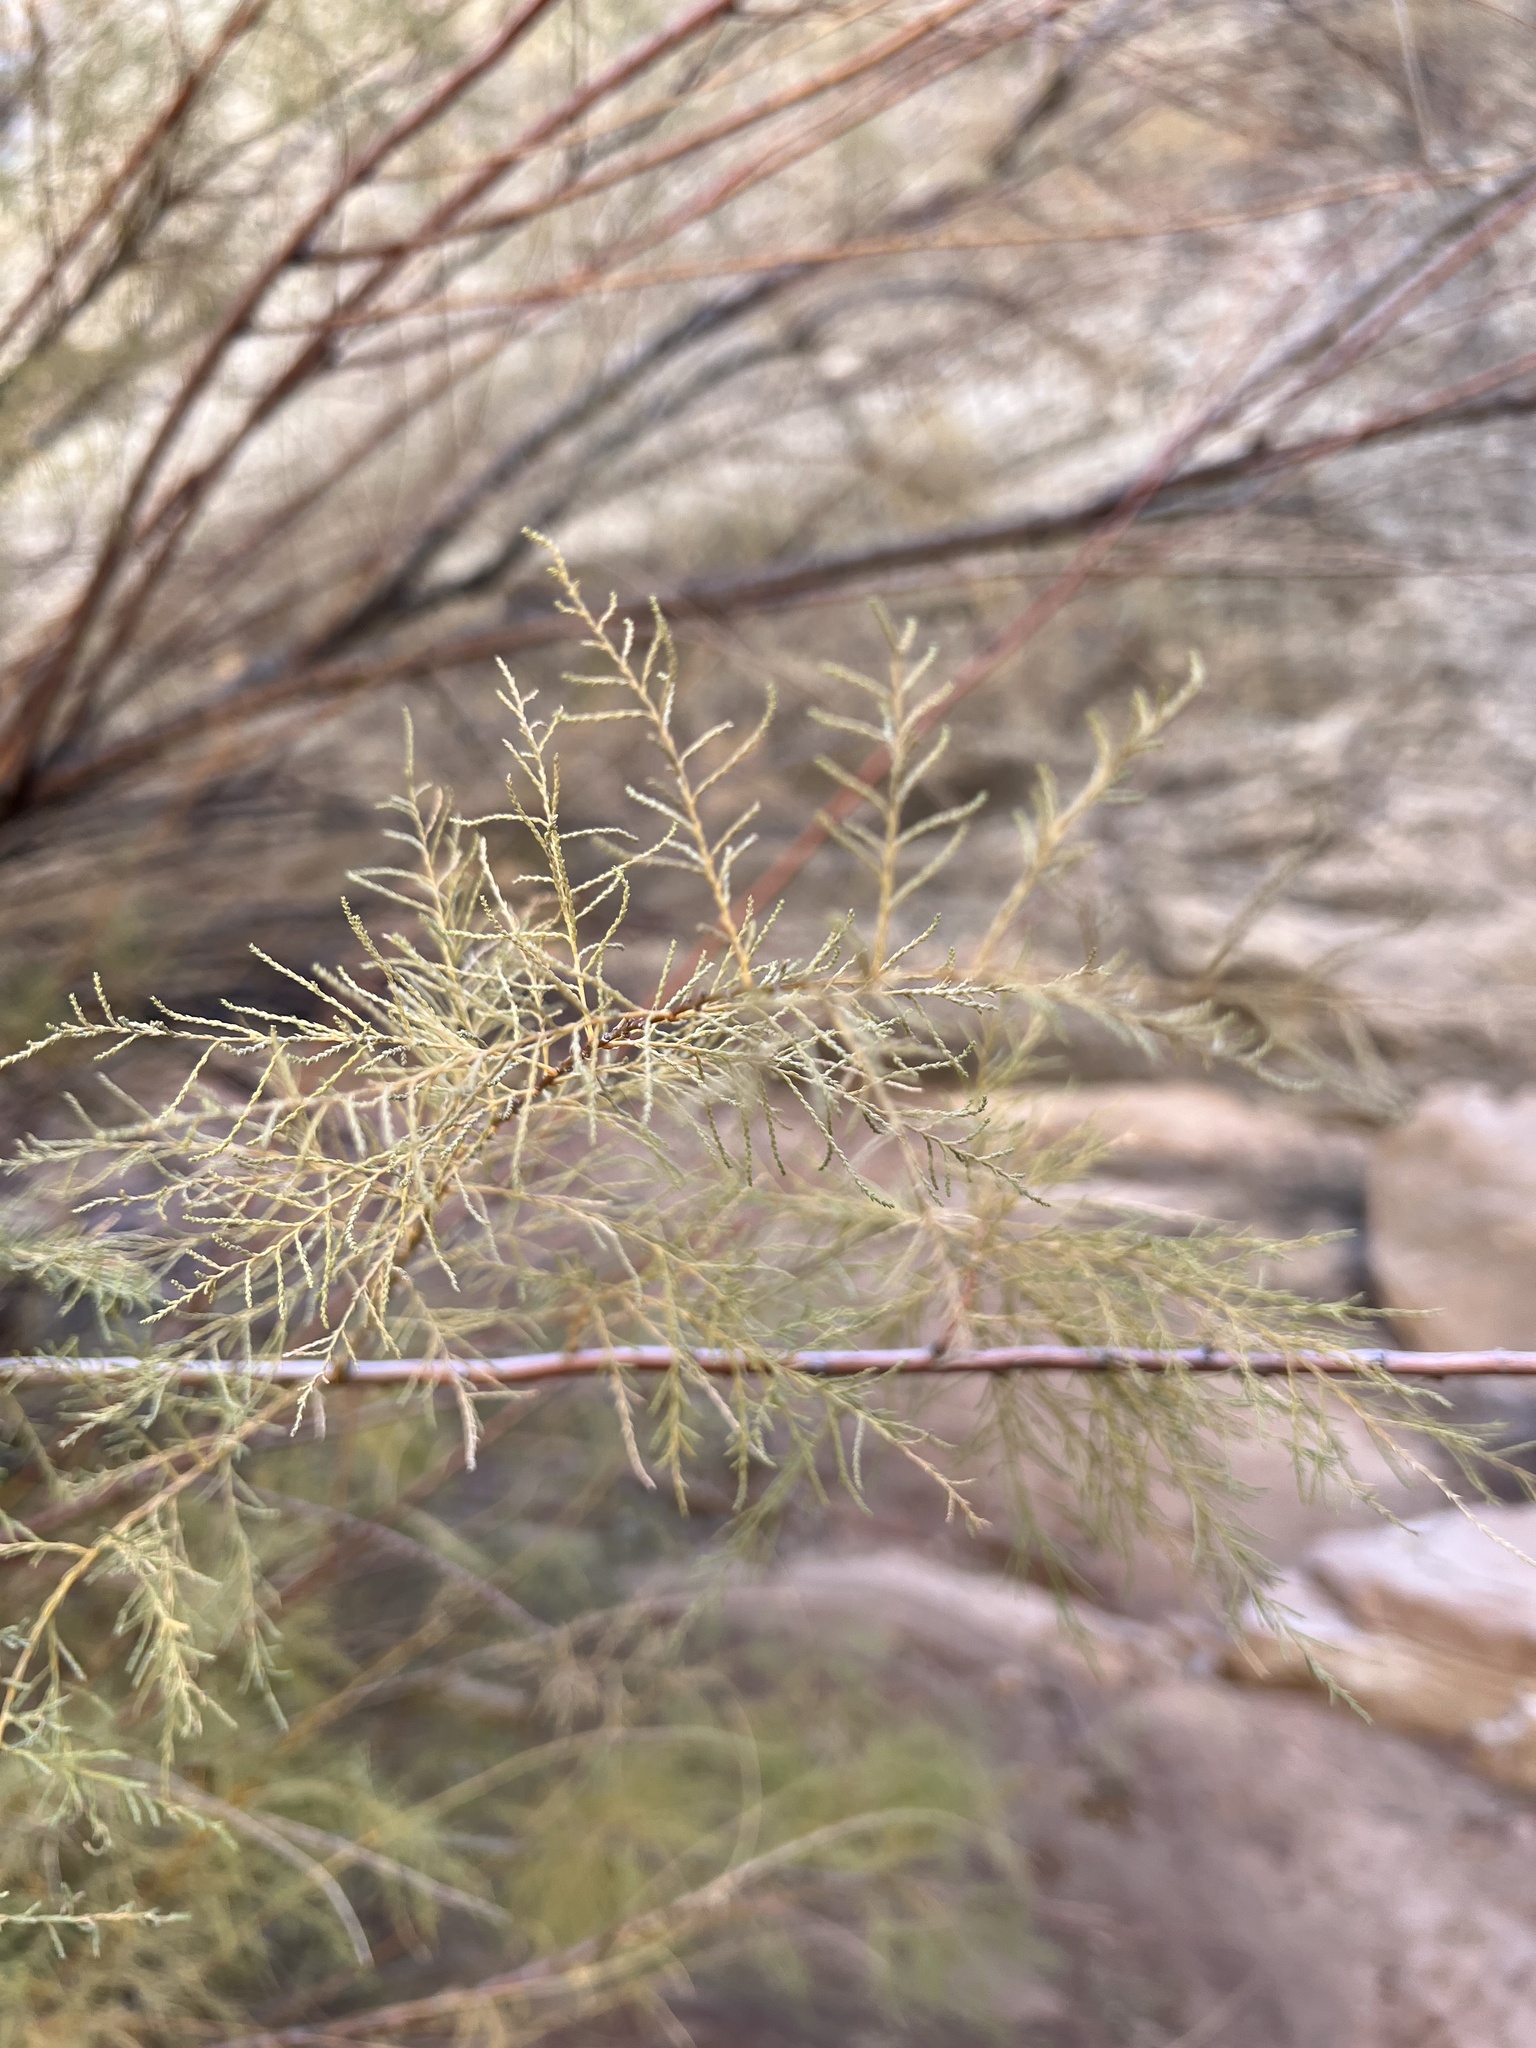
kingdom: Plantae
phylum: Tracheophyta
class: Magnoliopsida
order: Caryophyllales
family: Tamaricaceae
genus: Tamarix
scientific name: Tamarix
